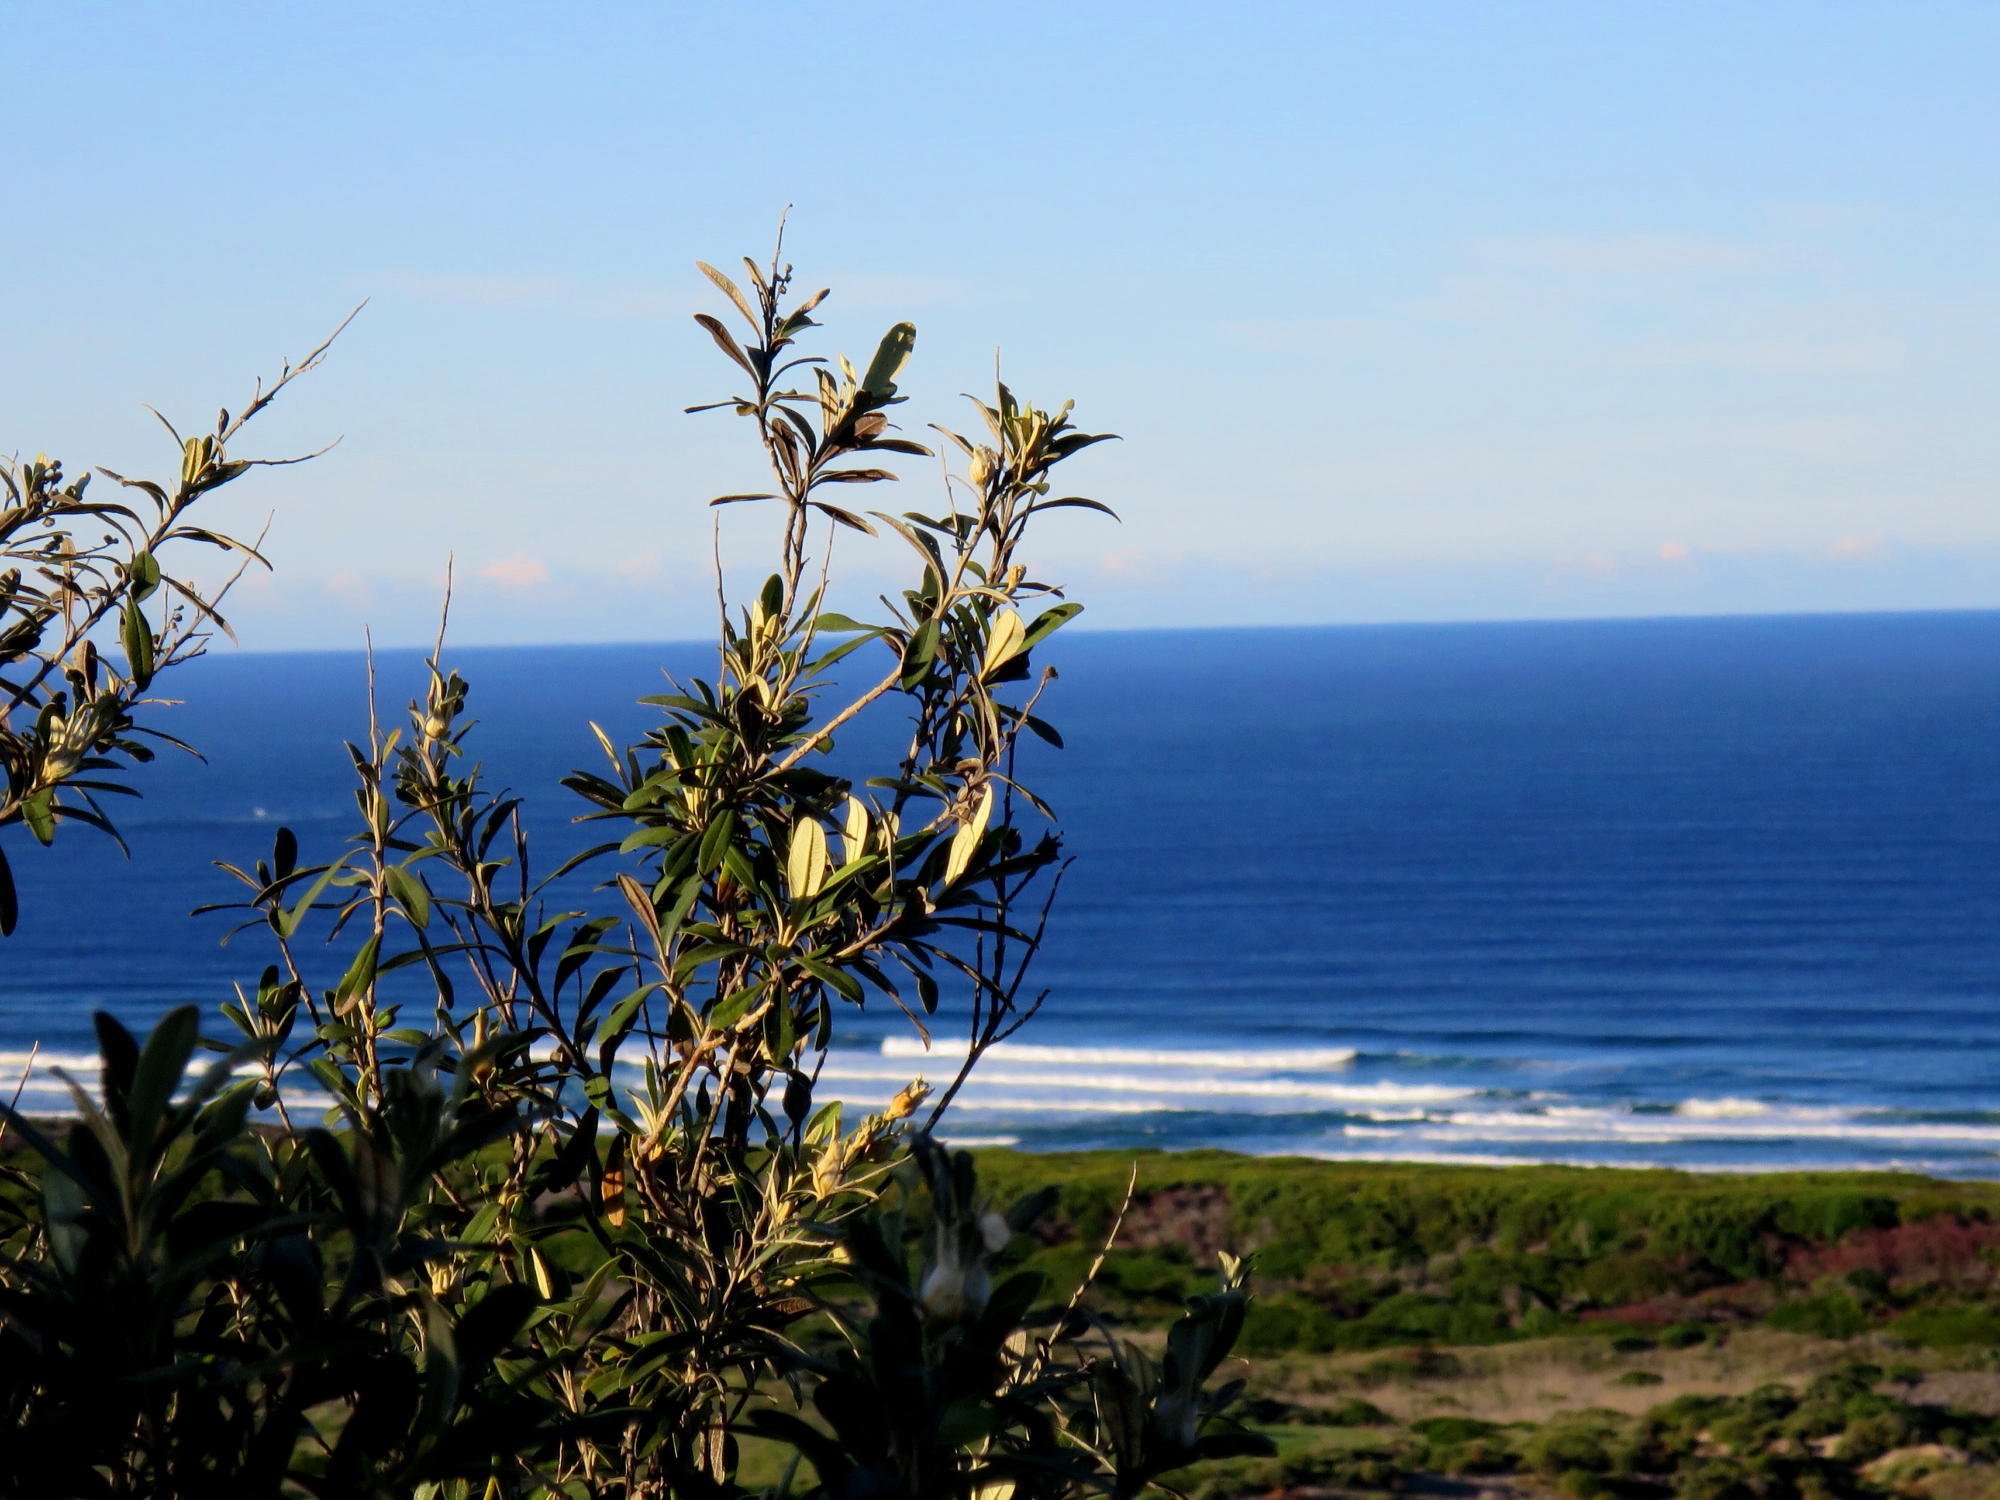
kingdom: Plantae
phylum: Tracheophyta
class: Magnoliopsida
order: Asterales
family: Asteraceae
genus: Tarchonanthus
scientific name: Tarchonanthus littoralis
